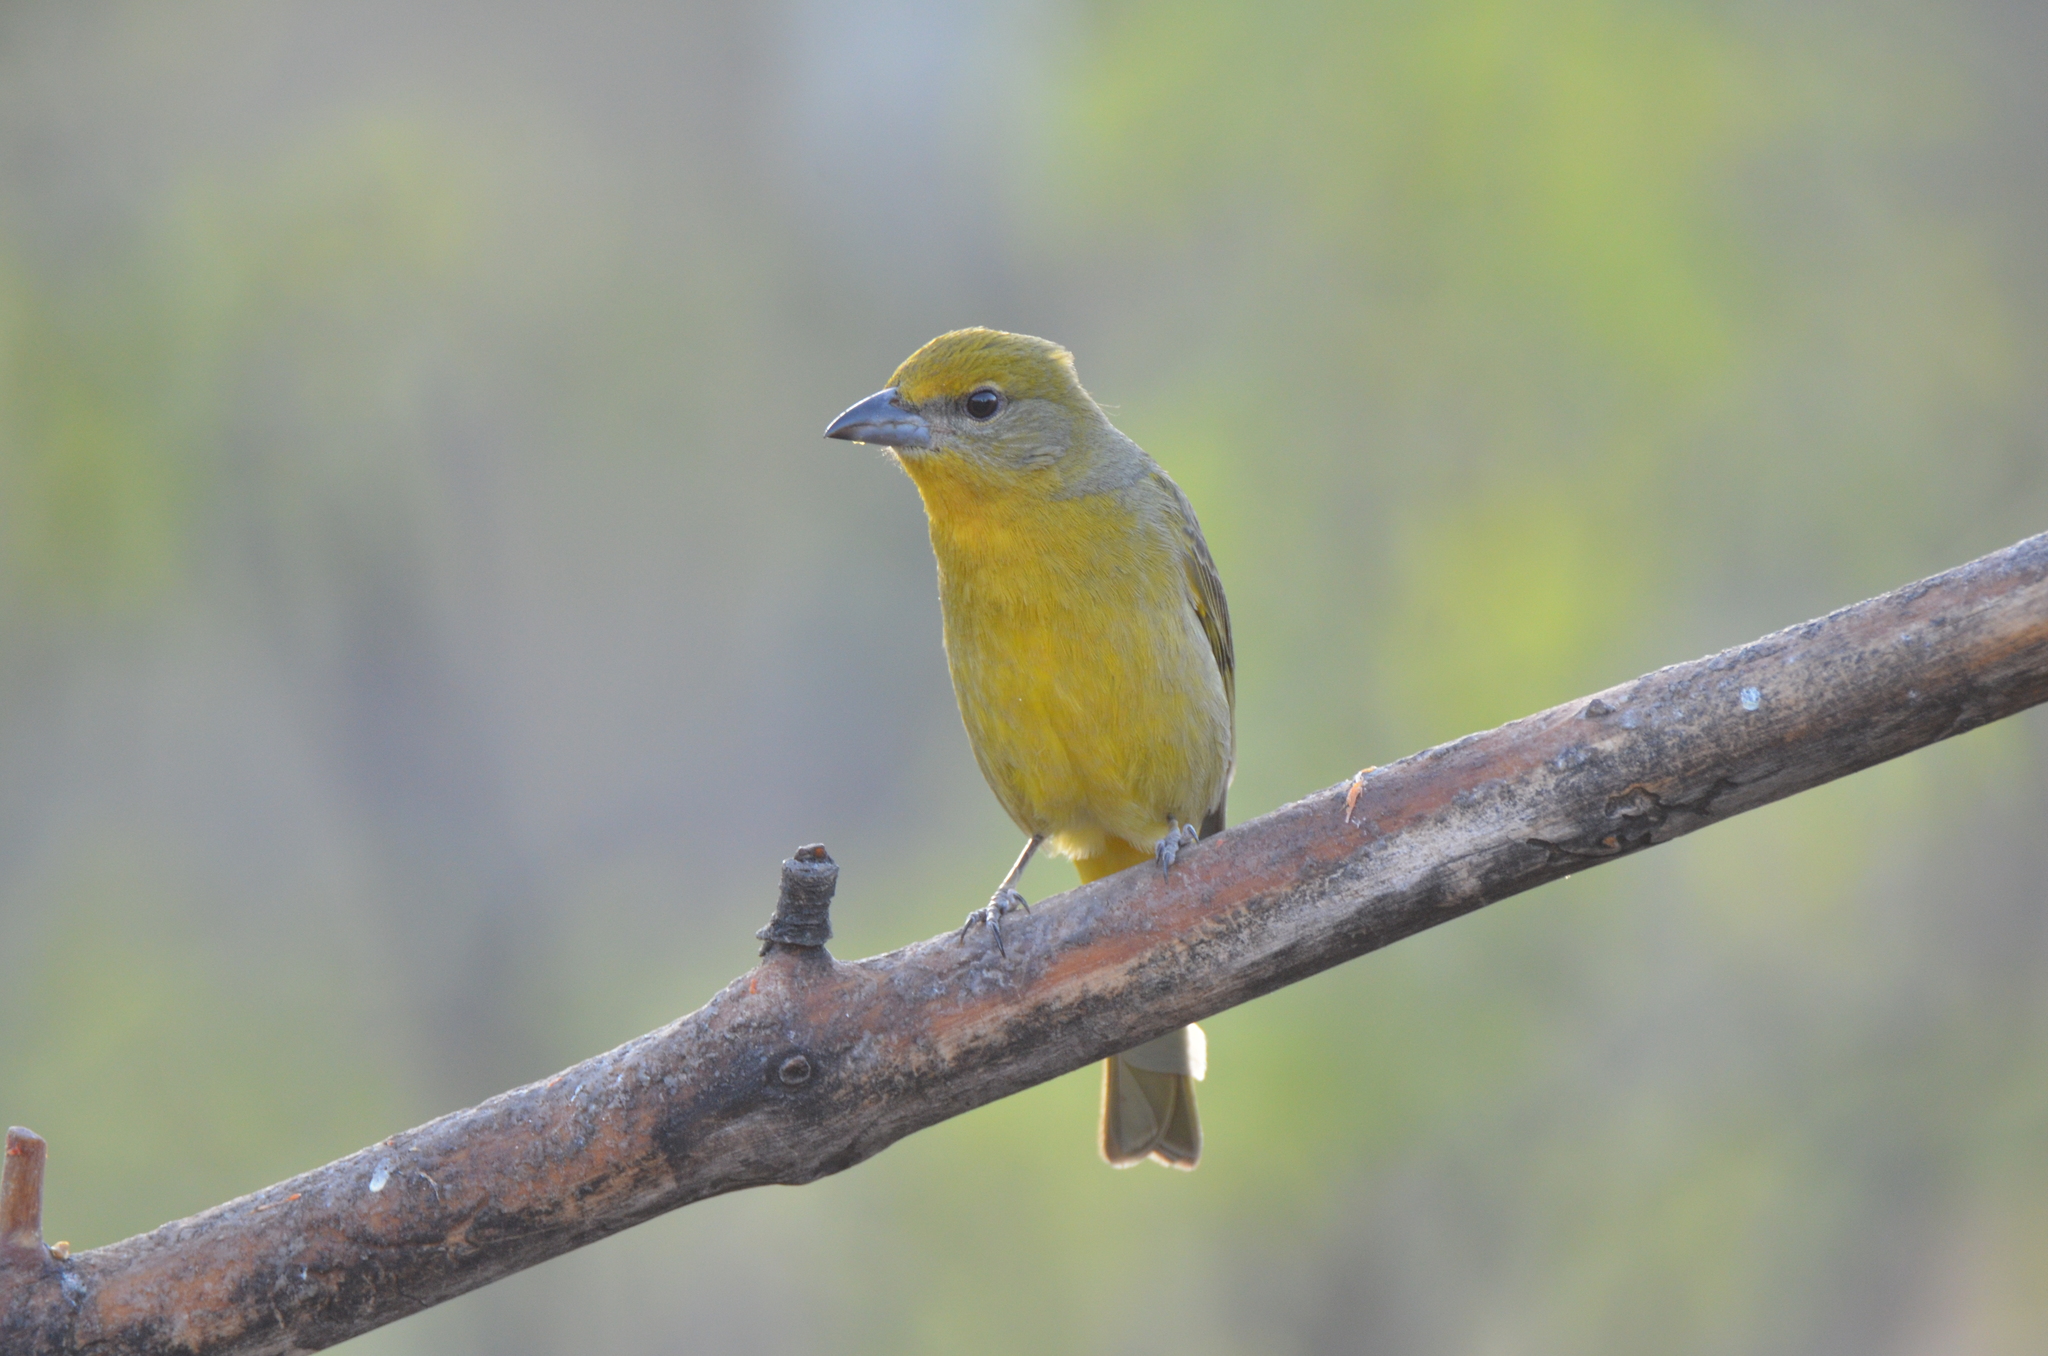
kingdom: Animalia
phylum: Chordata
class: Aves
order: Passeriformes
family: Cardinalidae
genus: Piranga
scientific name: Piranga flava
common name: Red tanager
